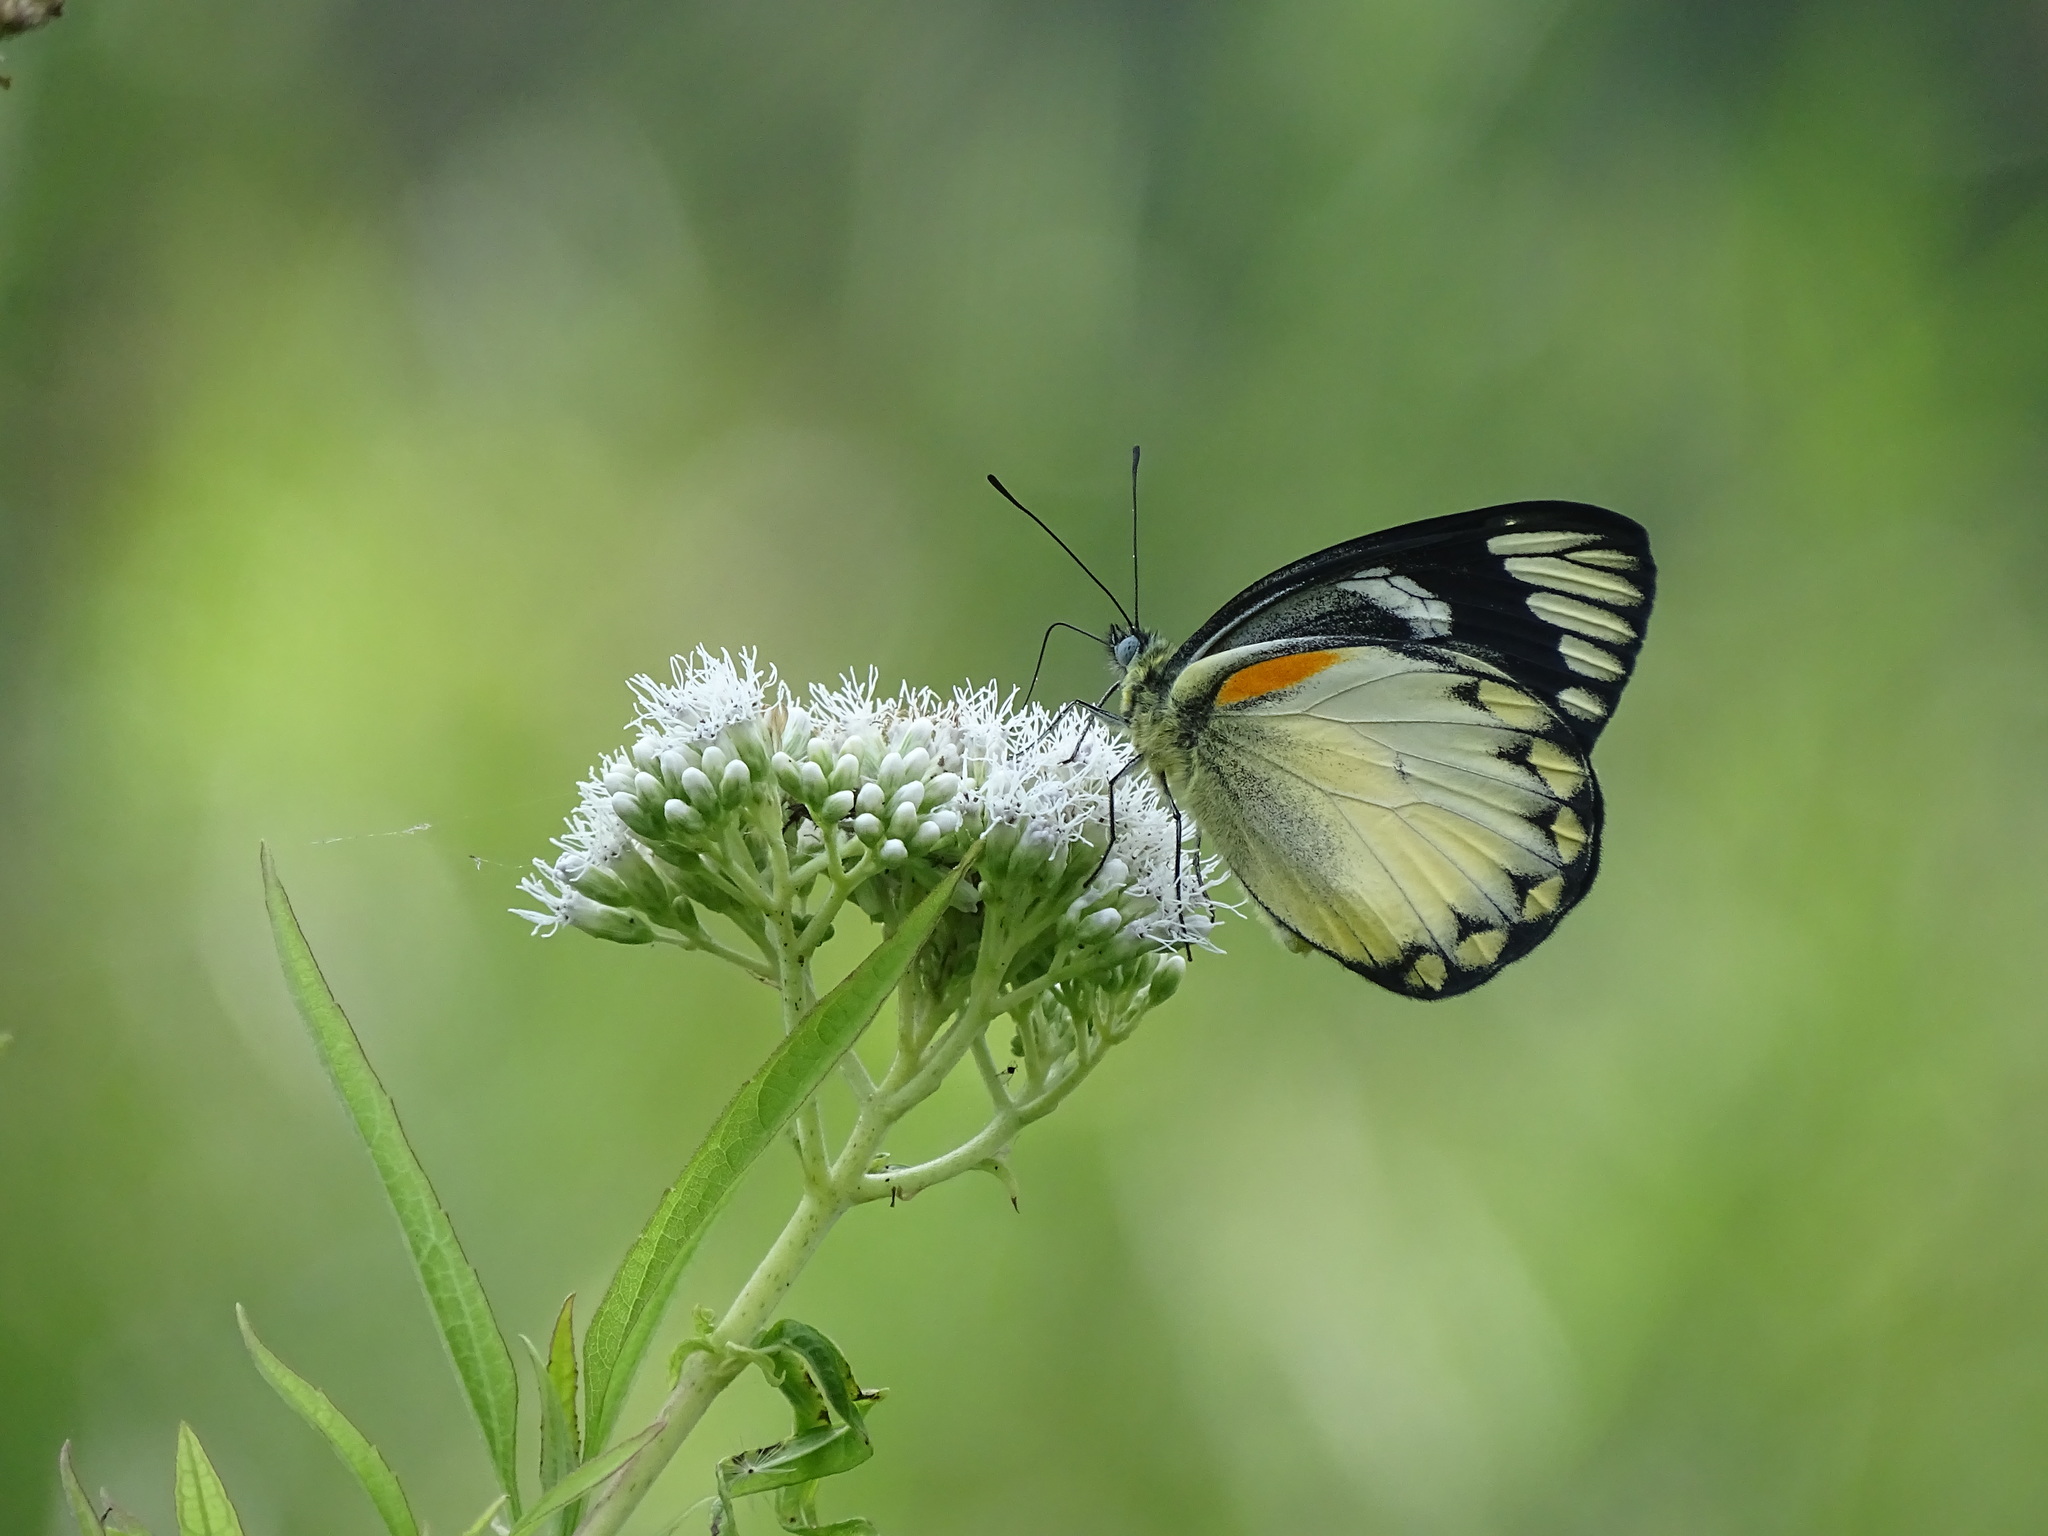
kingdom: Animalia
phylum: Arthropoda
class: Insecta
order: Lepidoptera
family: Pieridae
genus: Delias
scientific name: Delias belisama
